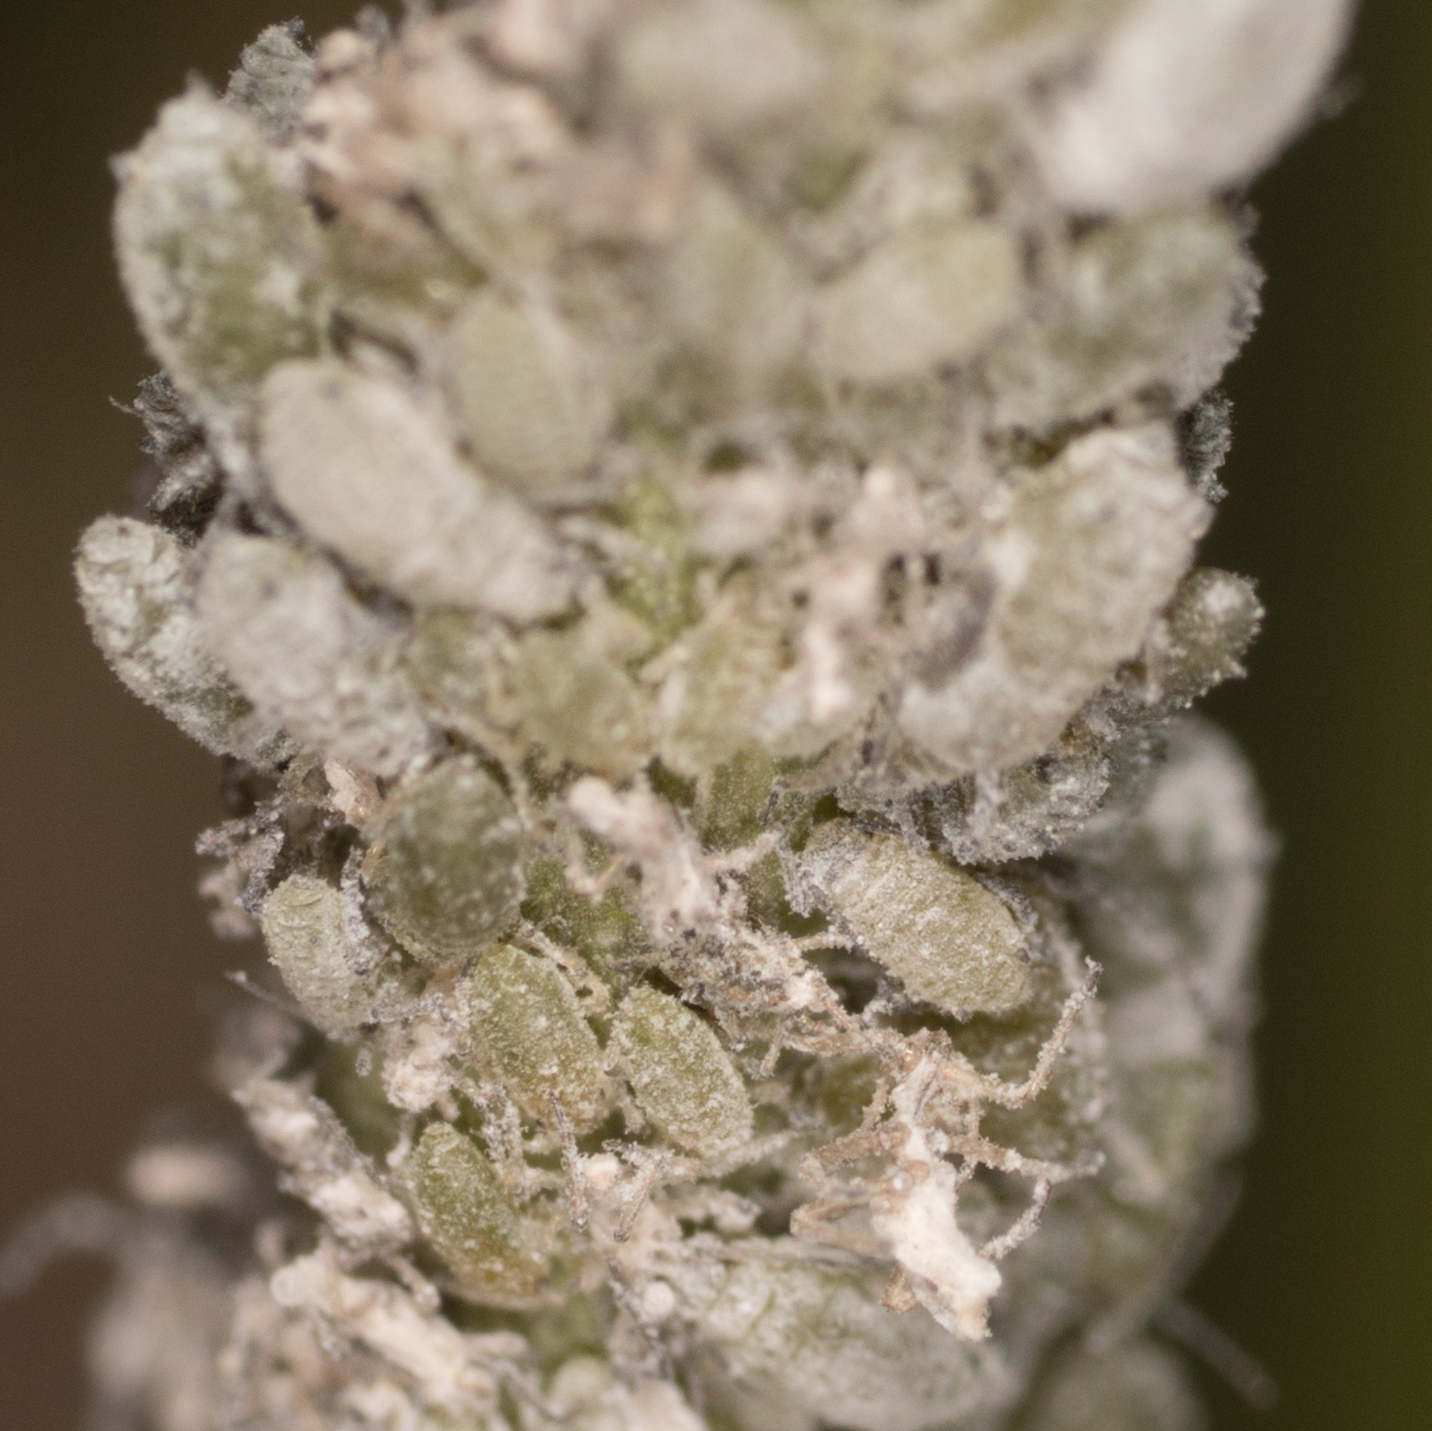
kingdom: Animalia
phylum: Arthropoda
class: Insecta
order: Hemiptera
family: Aphididae
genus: Brevicoryne
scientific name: Brevicoryne brassicae
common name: Cabbage aphid
